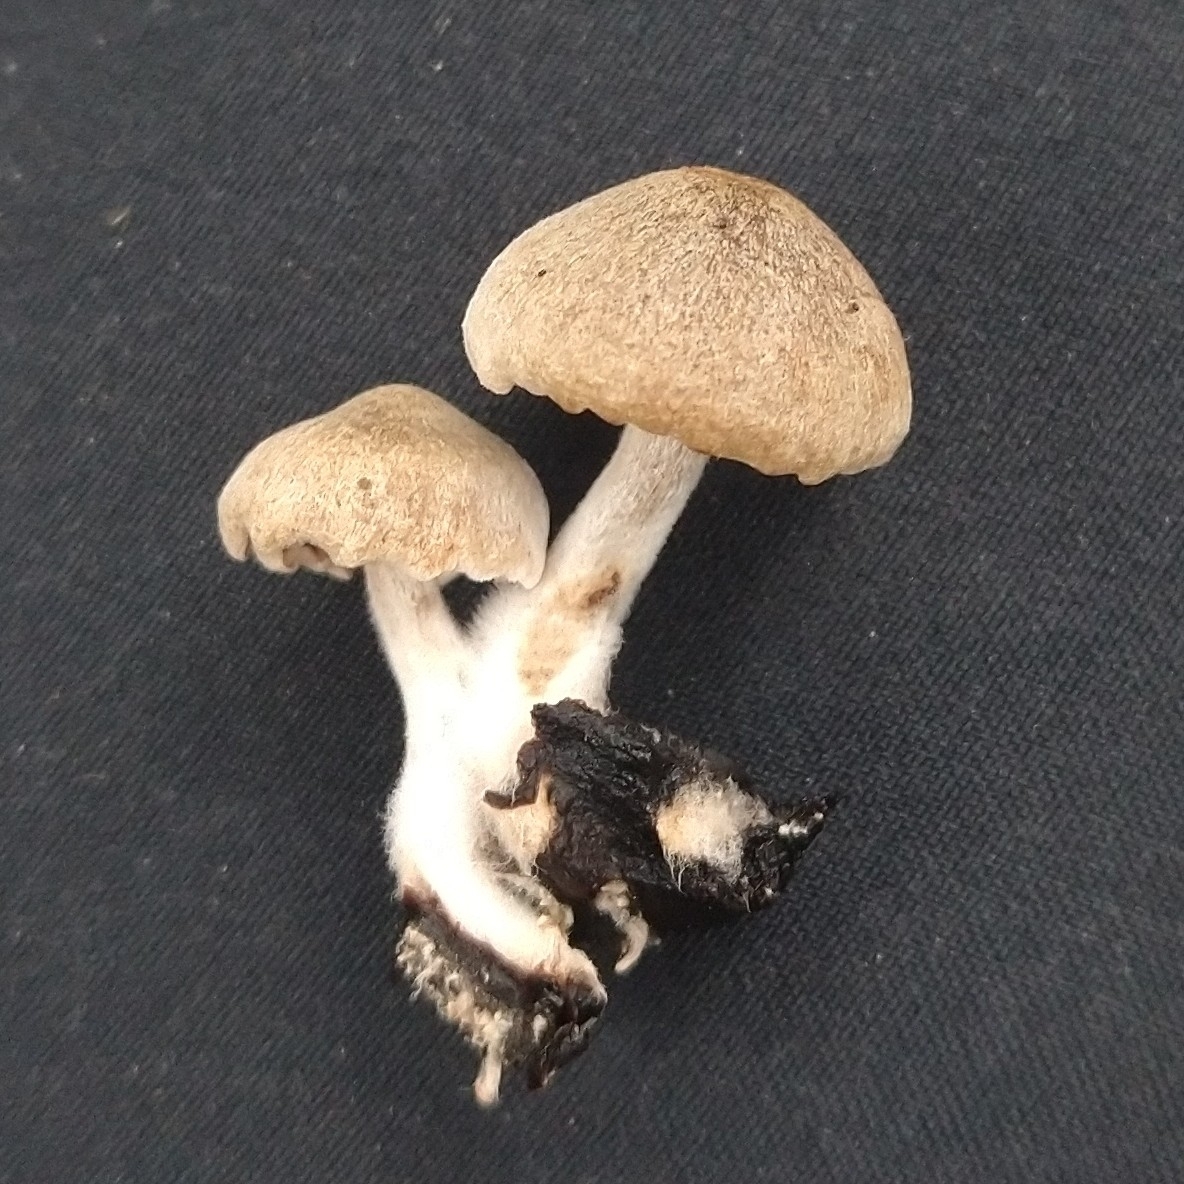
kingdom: Fungi
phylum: Basidiomycota
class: Agaricomycetes
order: Agaricales
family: Lyophyllaceae
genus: Asterophora
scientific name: Asterophora parasitica
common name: Silky piggyback
